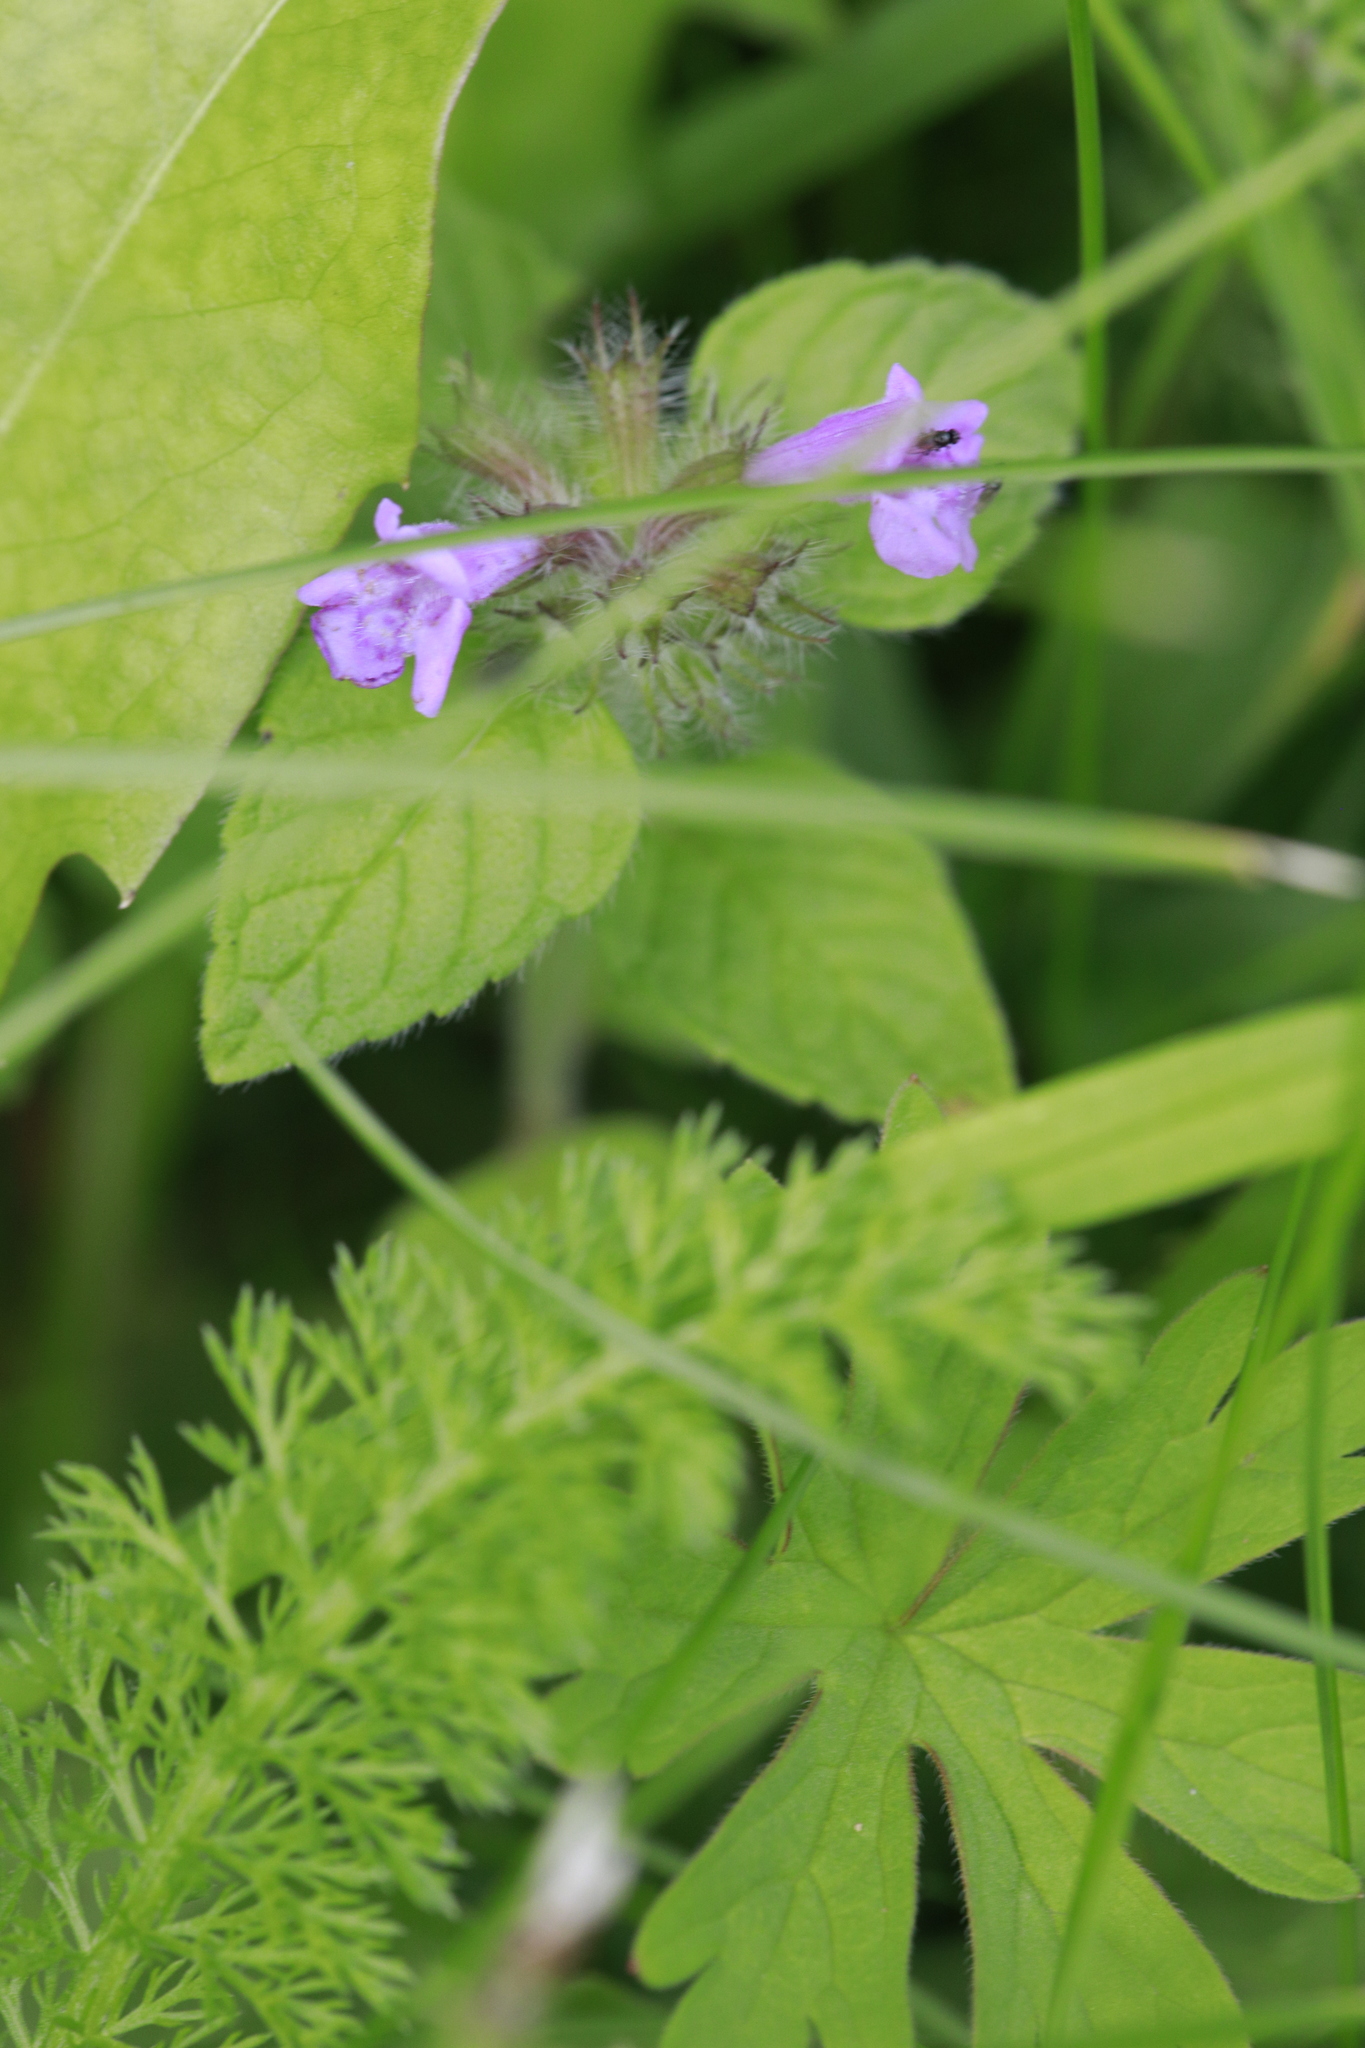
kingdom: Plantae
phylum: Tracheophyta
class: Magnoliopsida
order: Lamiales
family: Lamiaceae
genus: Clinopodium
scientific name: Clinopodium vulgare
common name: Wild basil
